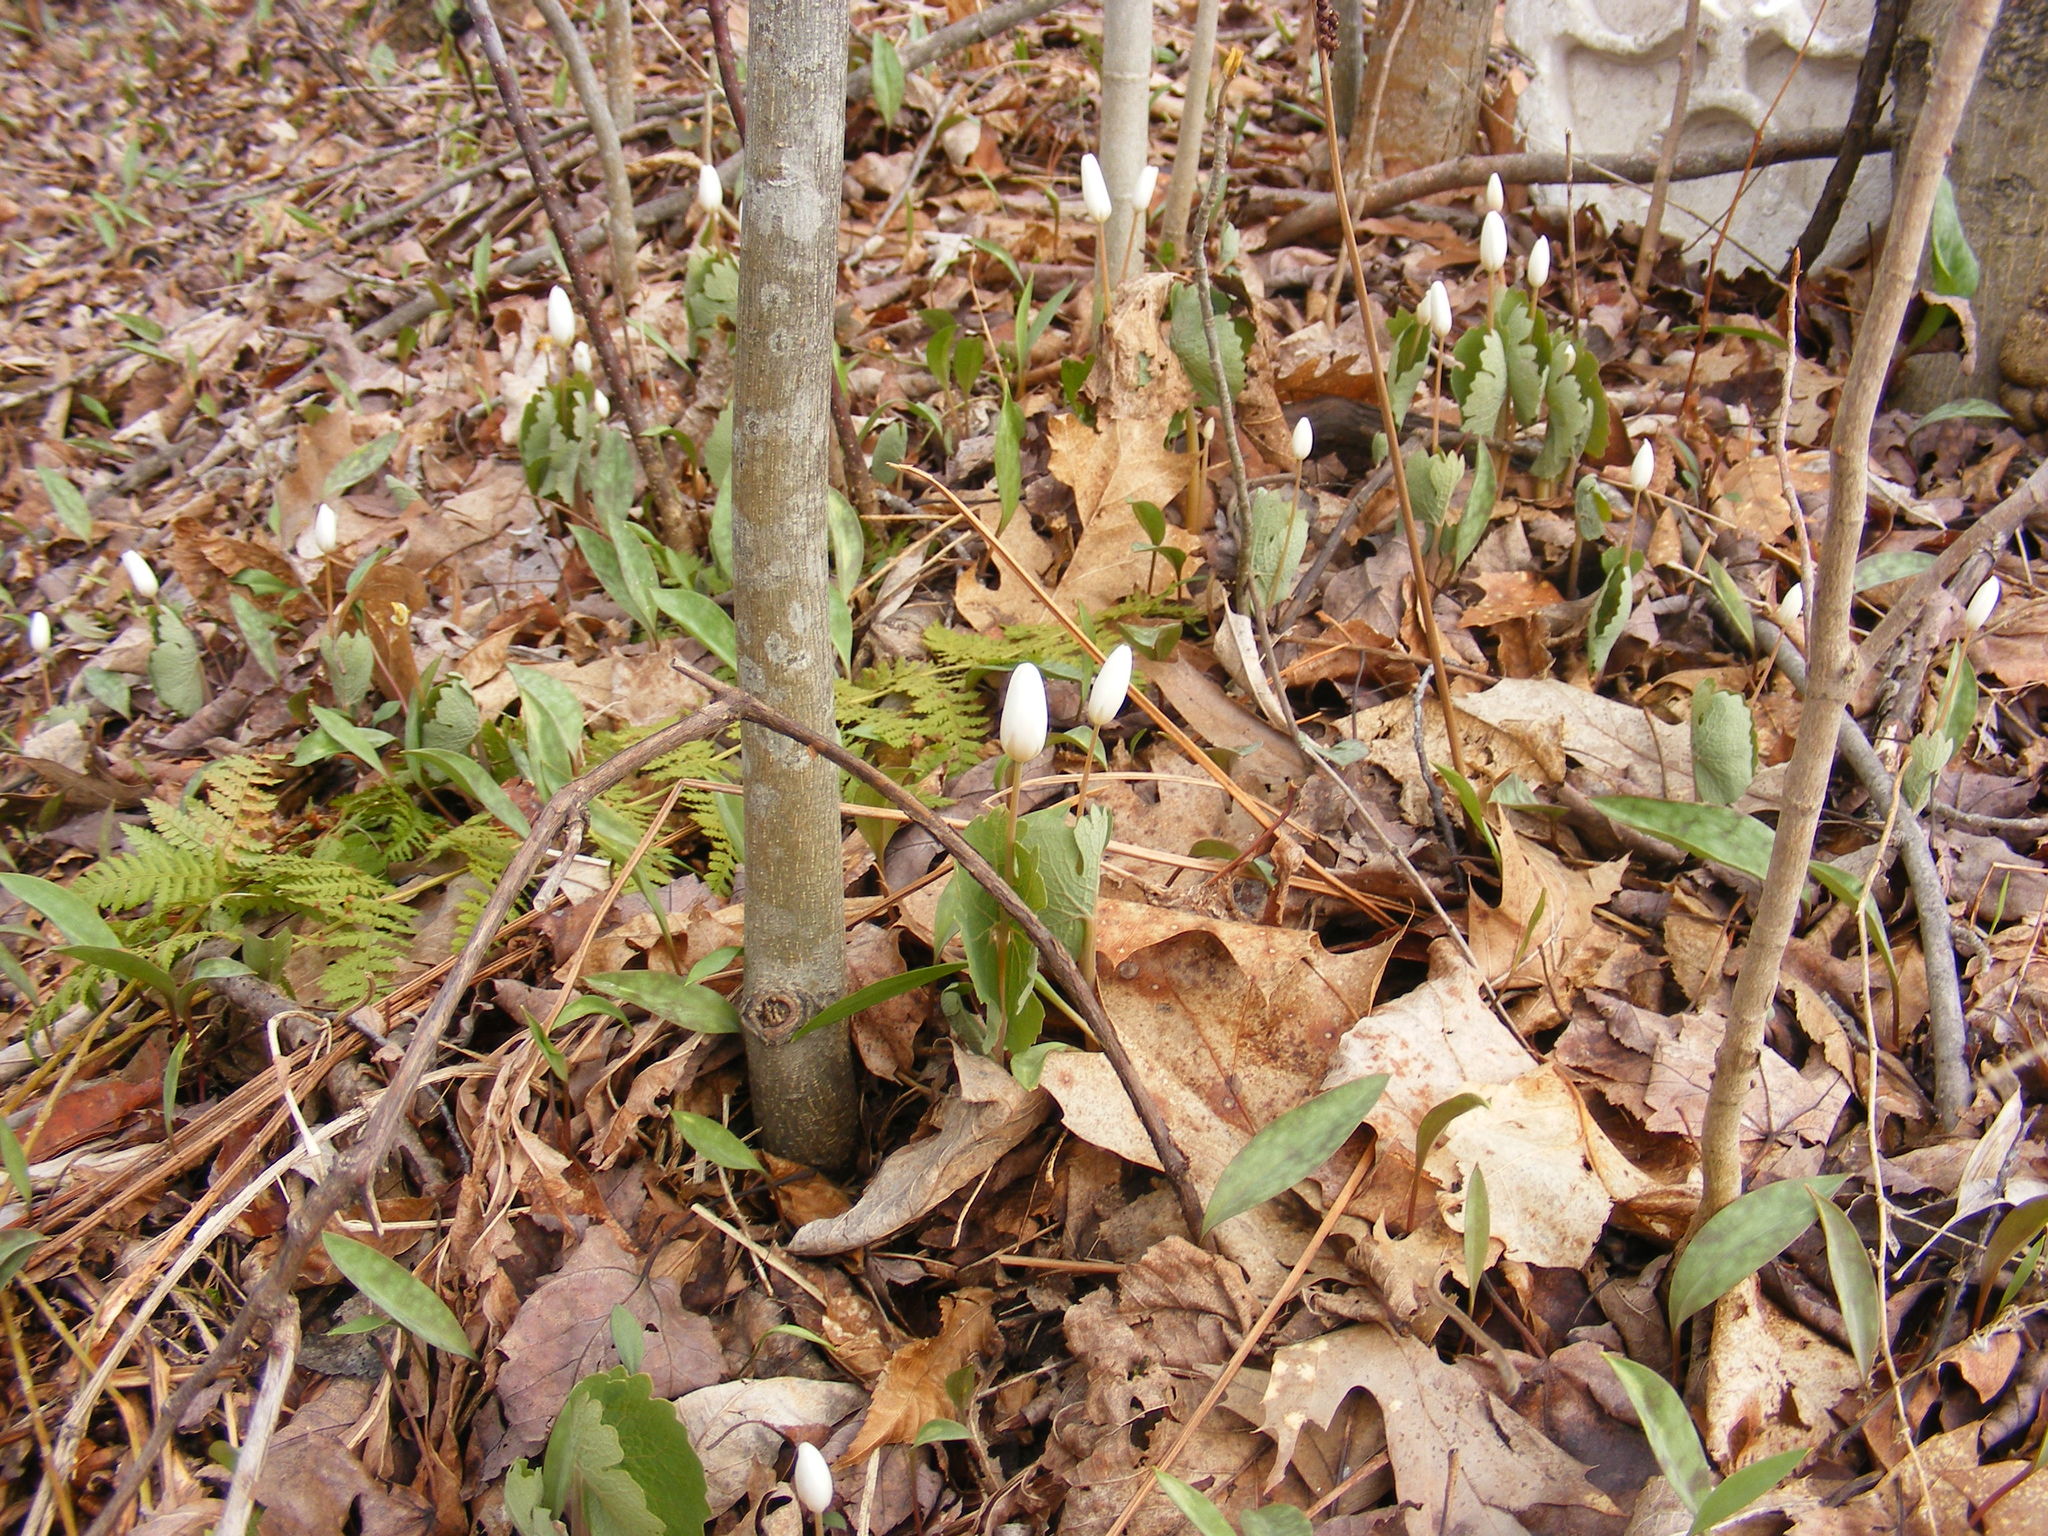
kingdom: Plantae
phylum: Tracheophyta
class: Magnoliopsida
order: Ranunculales
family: Papaveraceae
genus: Sanguinaria
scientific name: Sanguinaria canadensis
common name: Bloodroot
